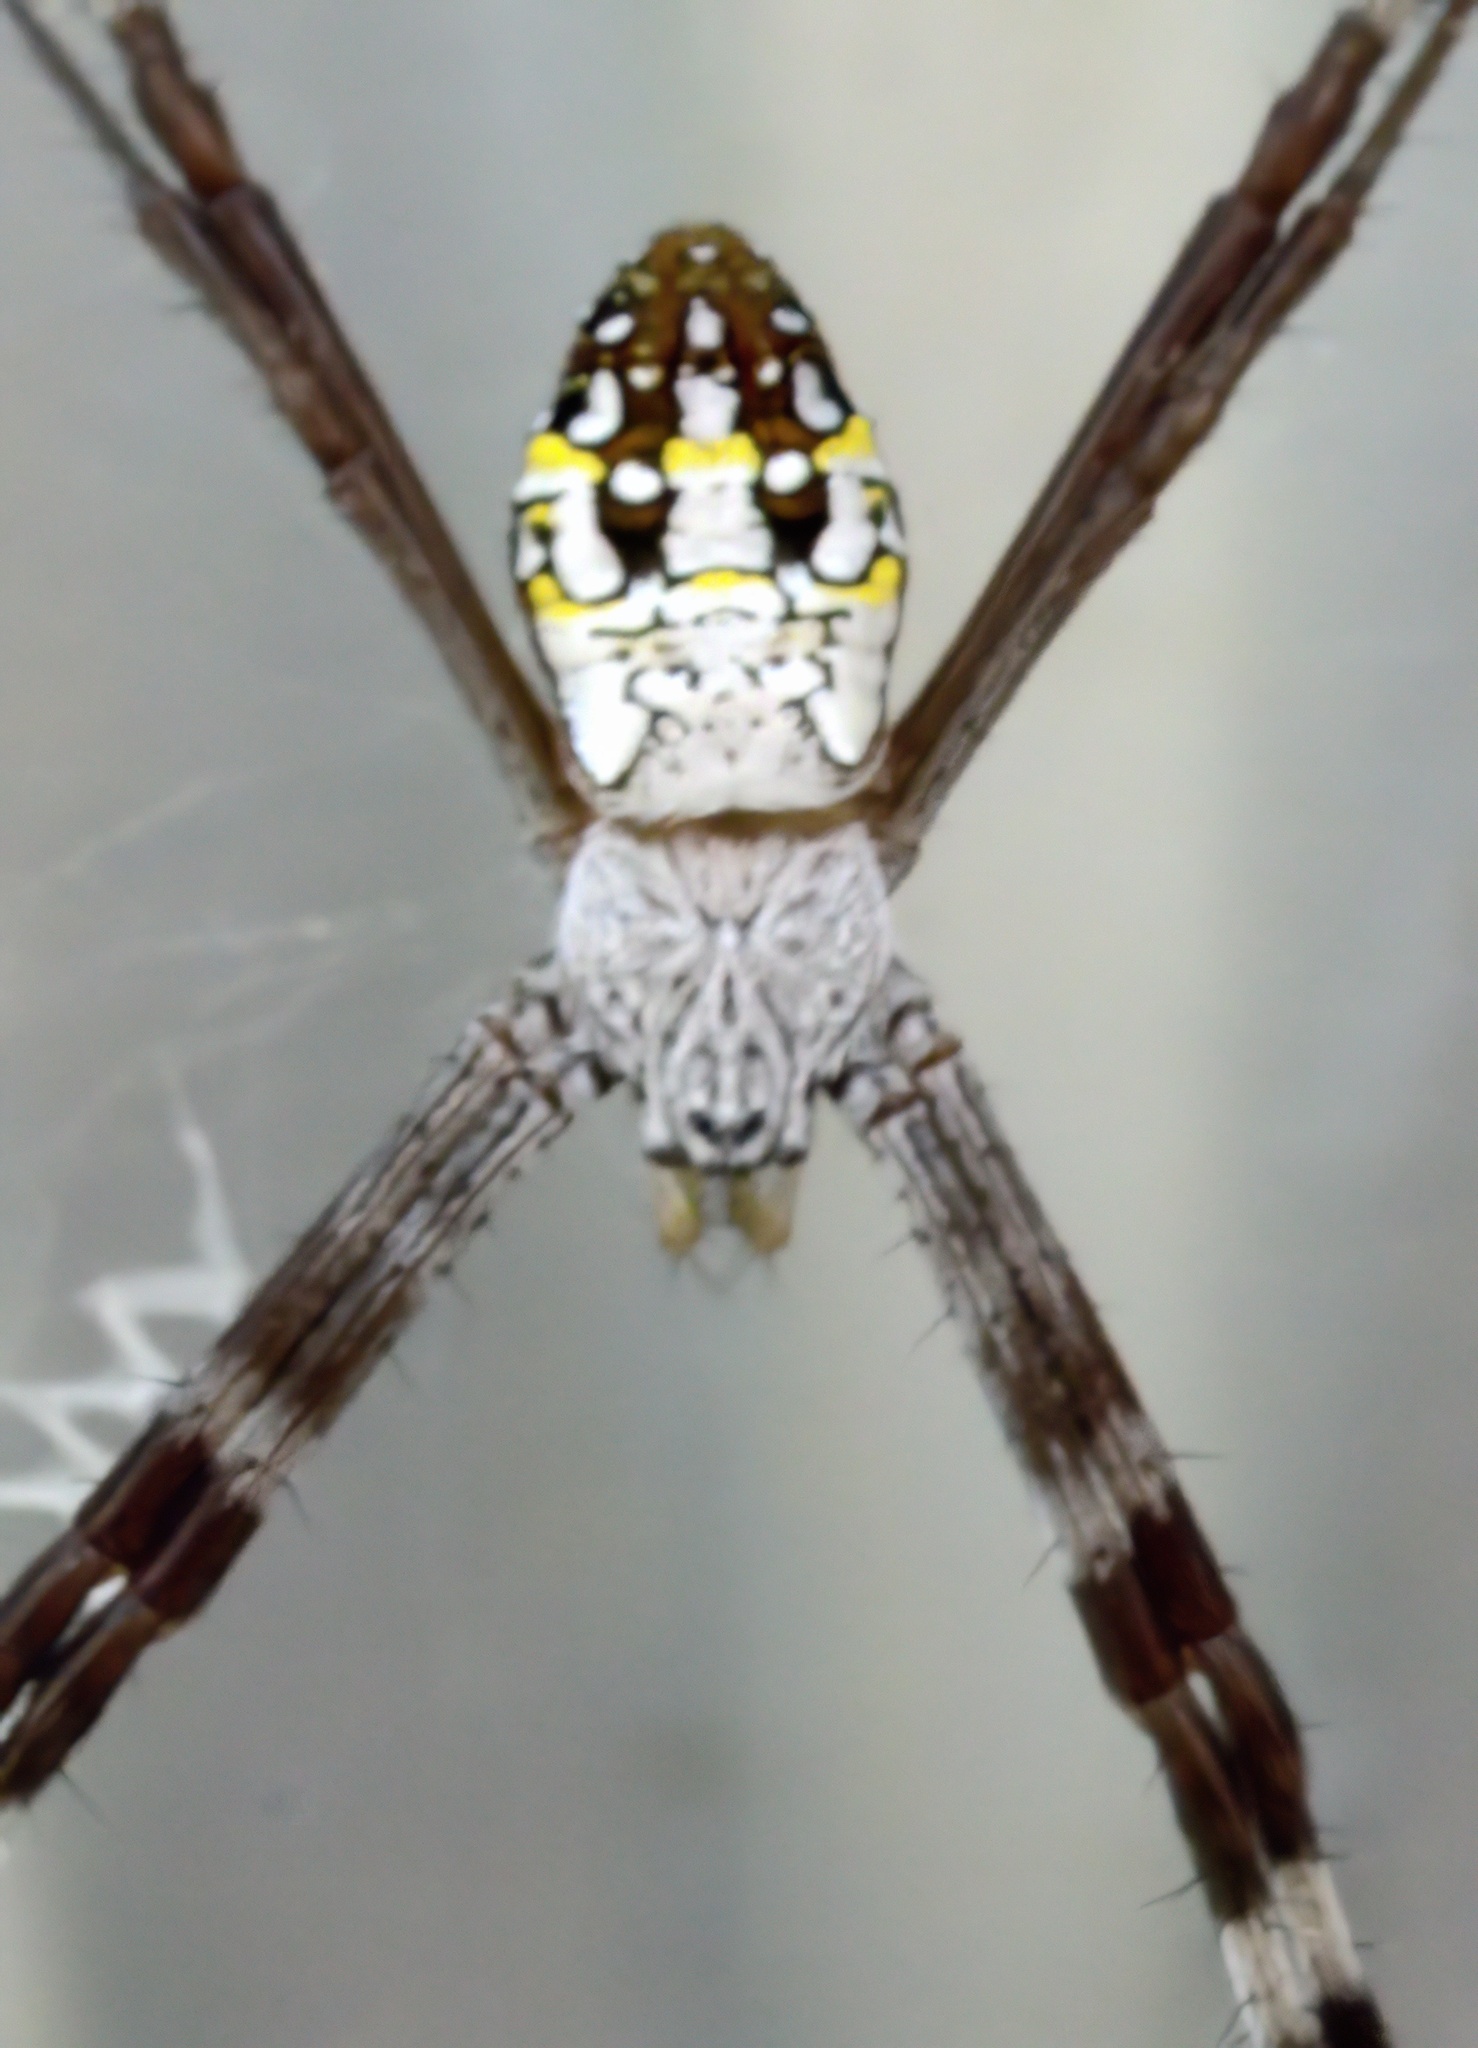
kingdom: Animalia
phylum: Arthropoda
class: Arachnida
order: Araneae
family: Araneidae
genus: Argiope
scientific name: Argiope dang
